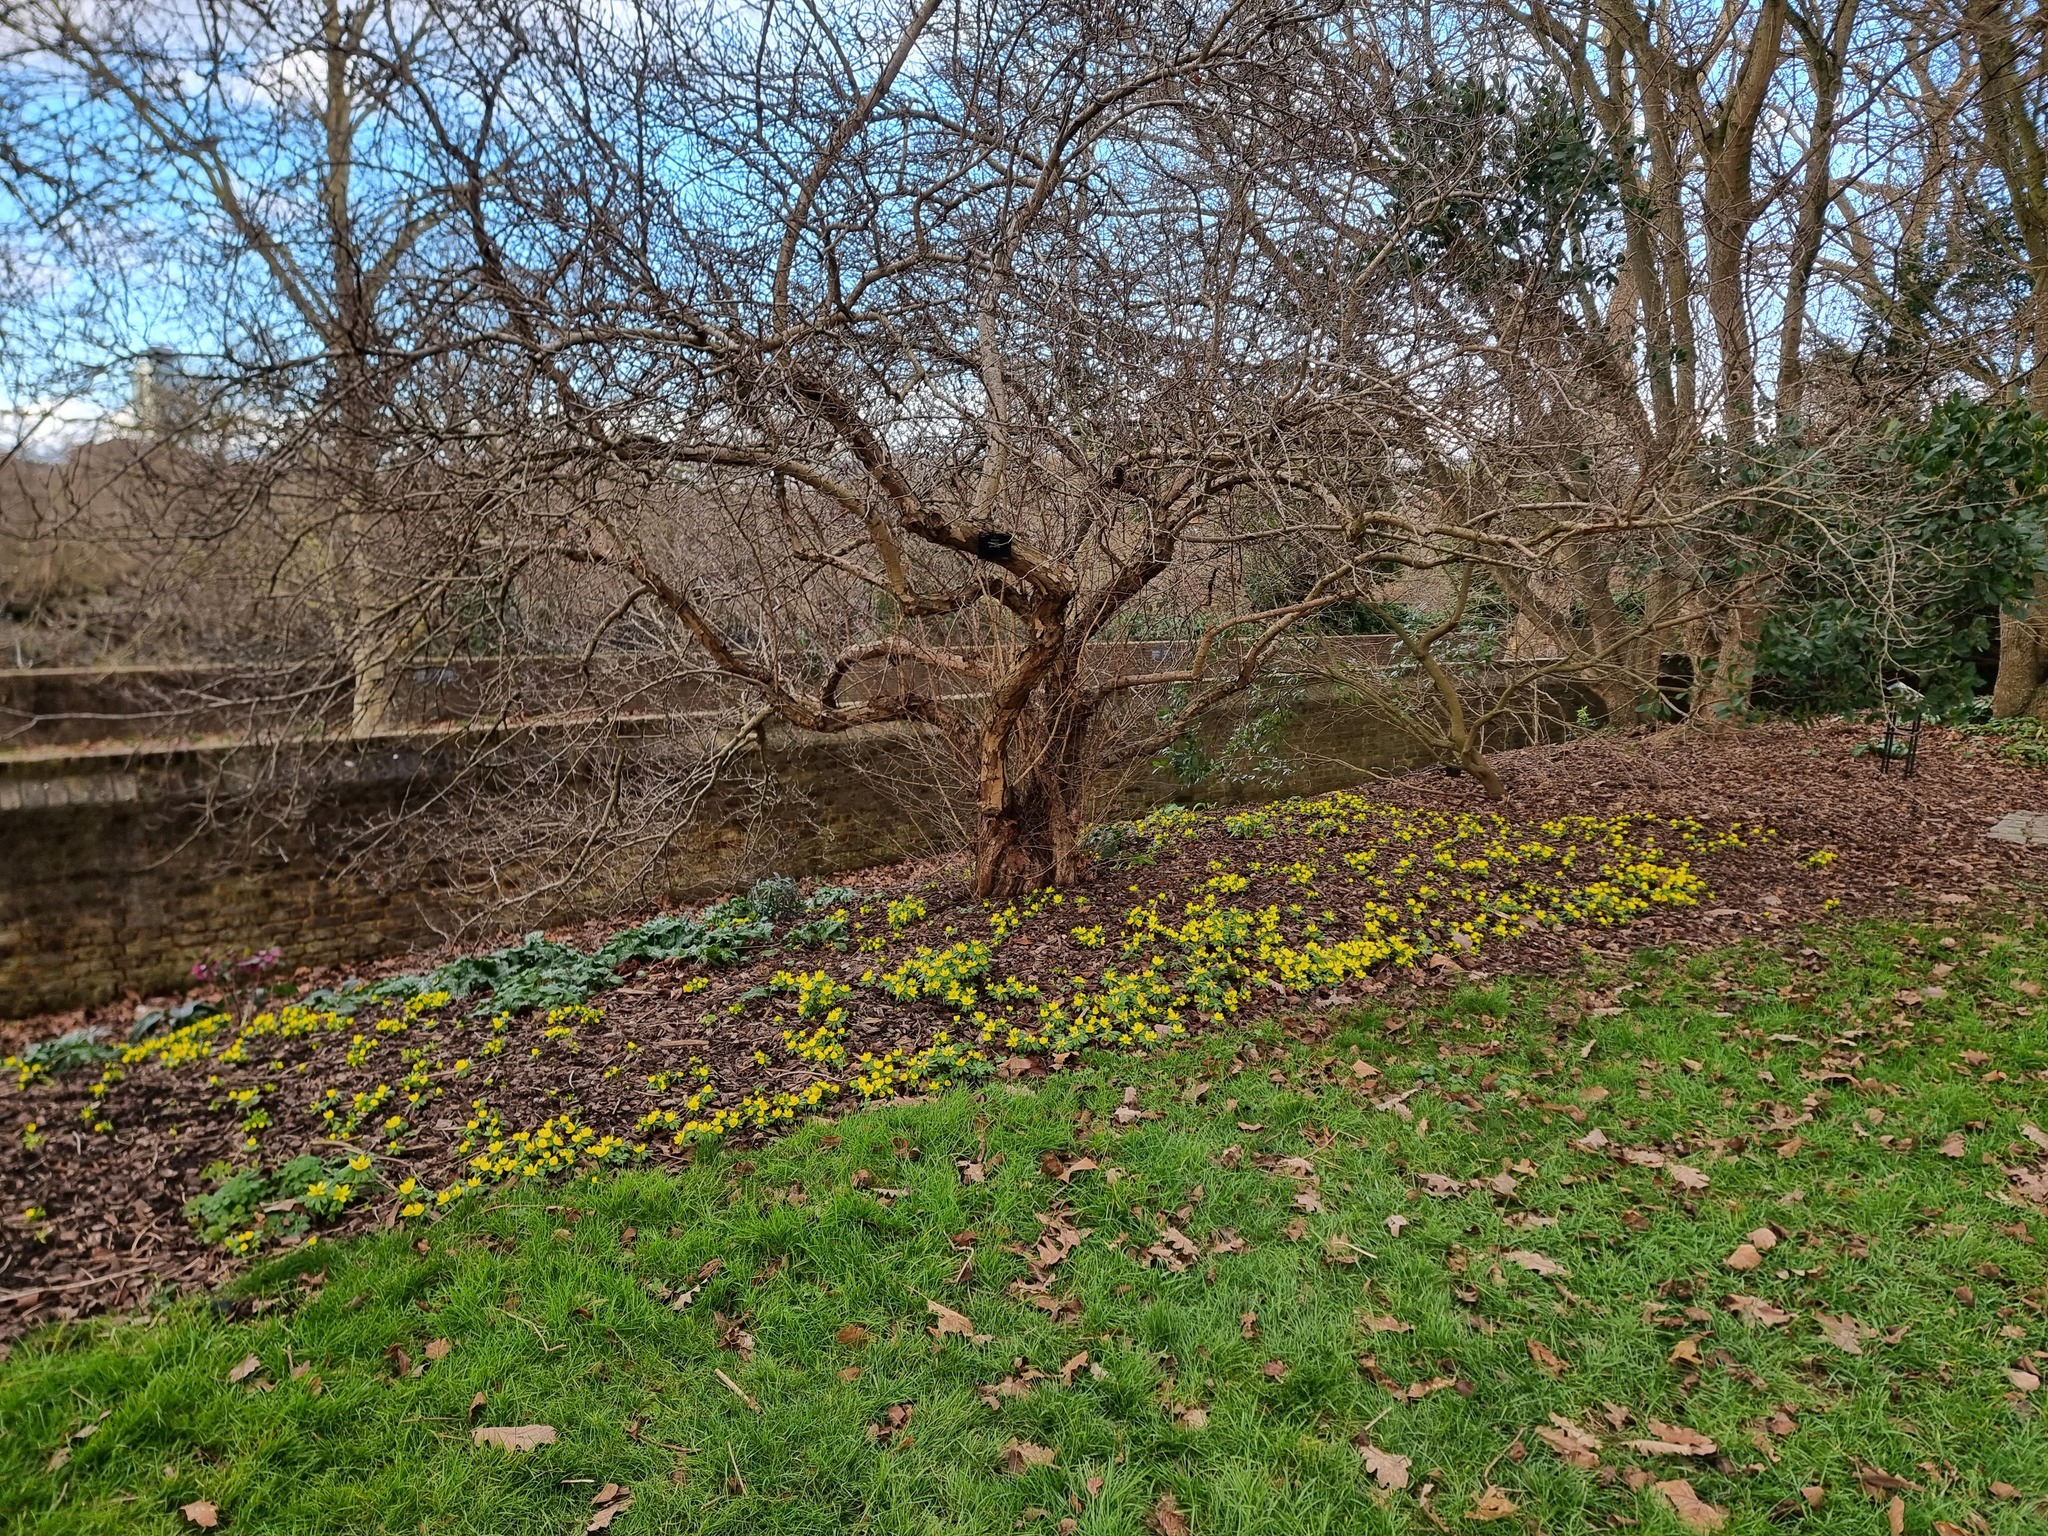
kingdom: Plantae
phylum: Tracheophyta
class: Magnoliopsida
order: Ranunculales
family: Ranunculaceae
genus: Eranthis
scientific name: Eranthis hyemalis
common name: Winter aconite
